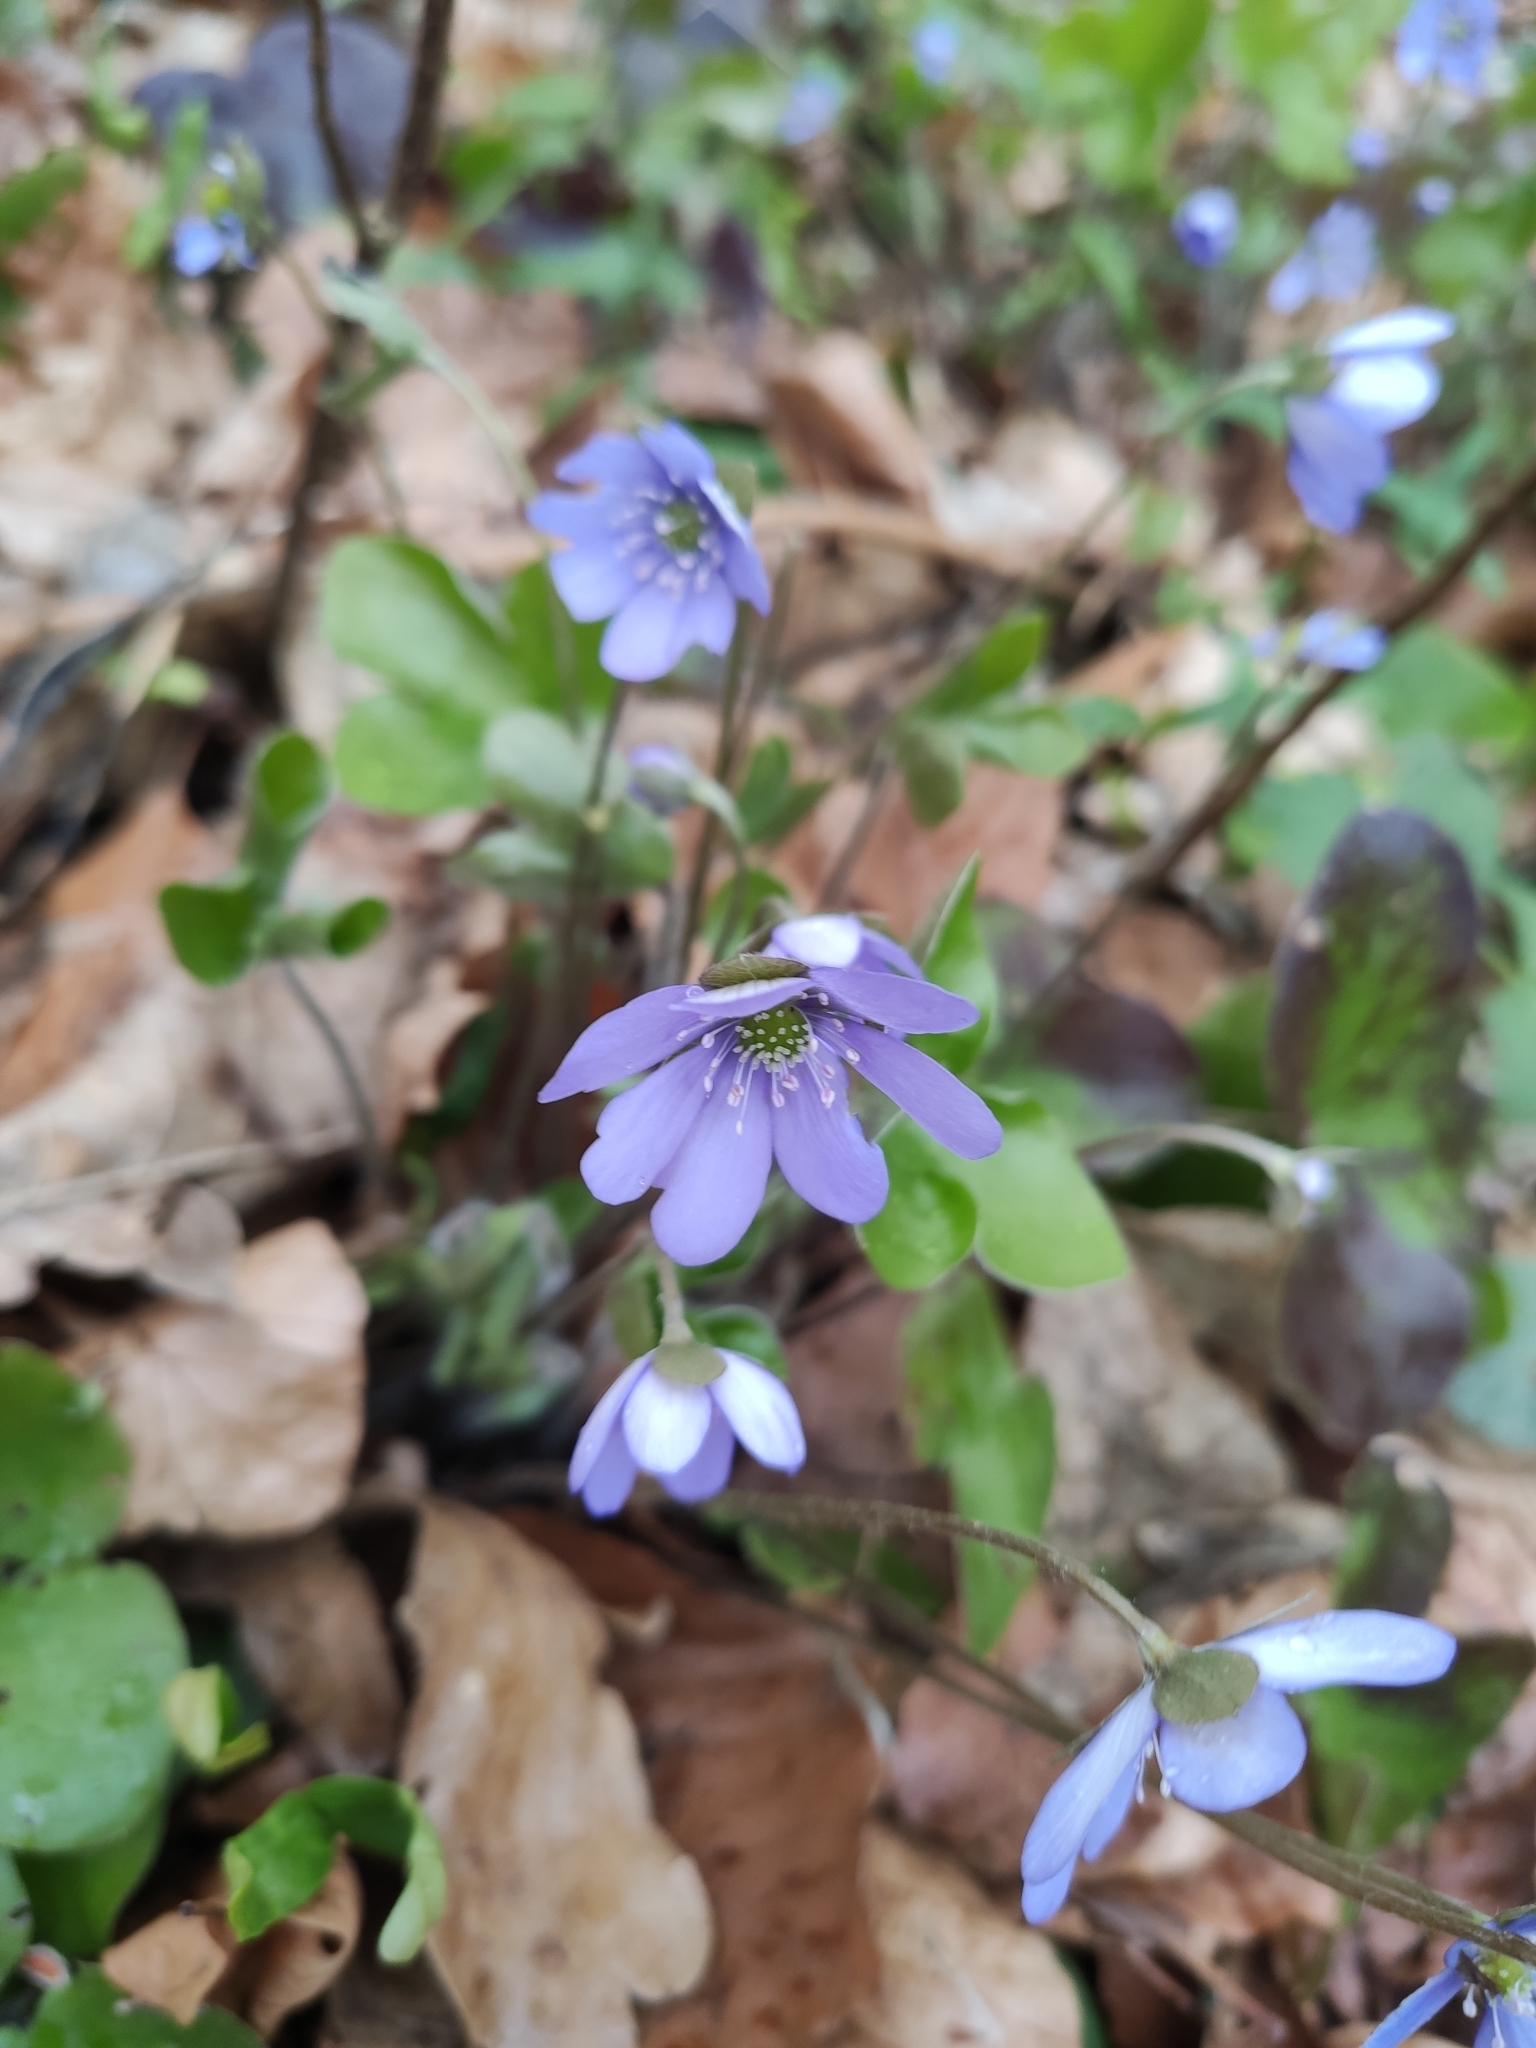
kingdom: Plantae
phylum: Tracheophyta
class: Magnoliopsida
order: Ranunculales
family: Ranunculaceae
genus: Hepatica
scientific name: Hepatica nobilis
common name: Liverleaf
